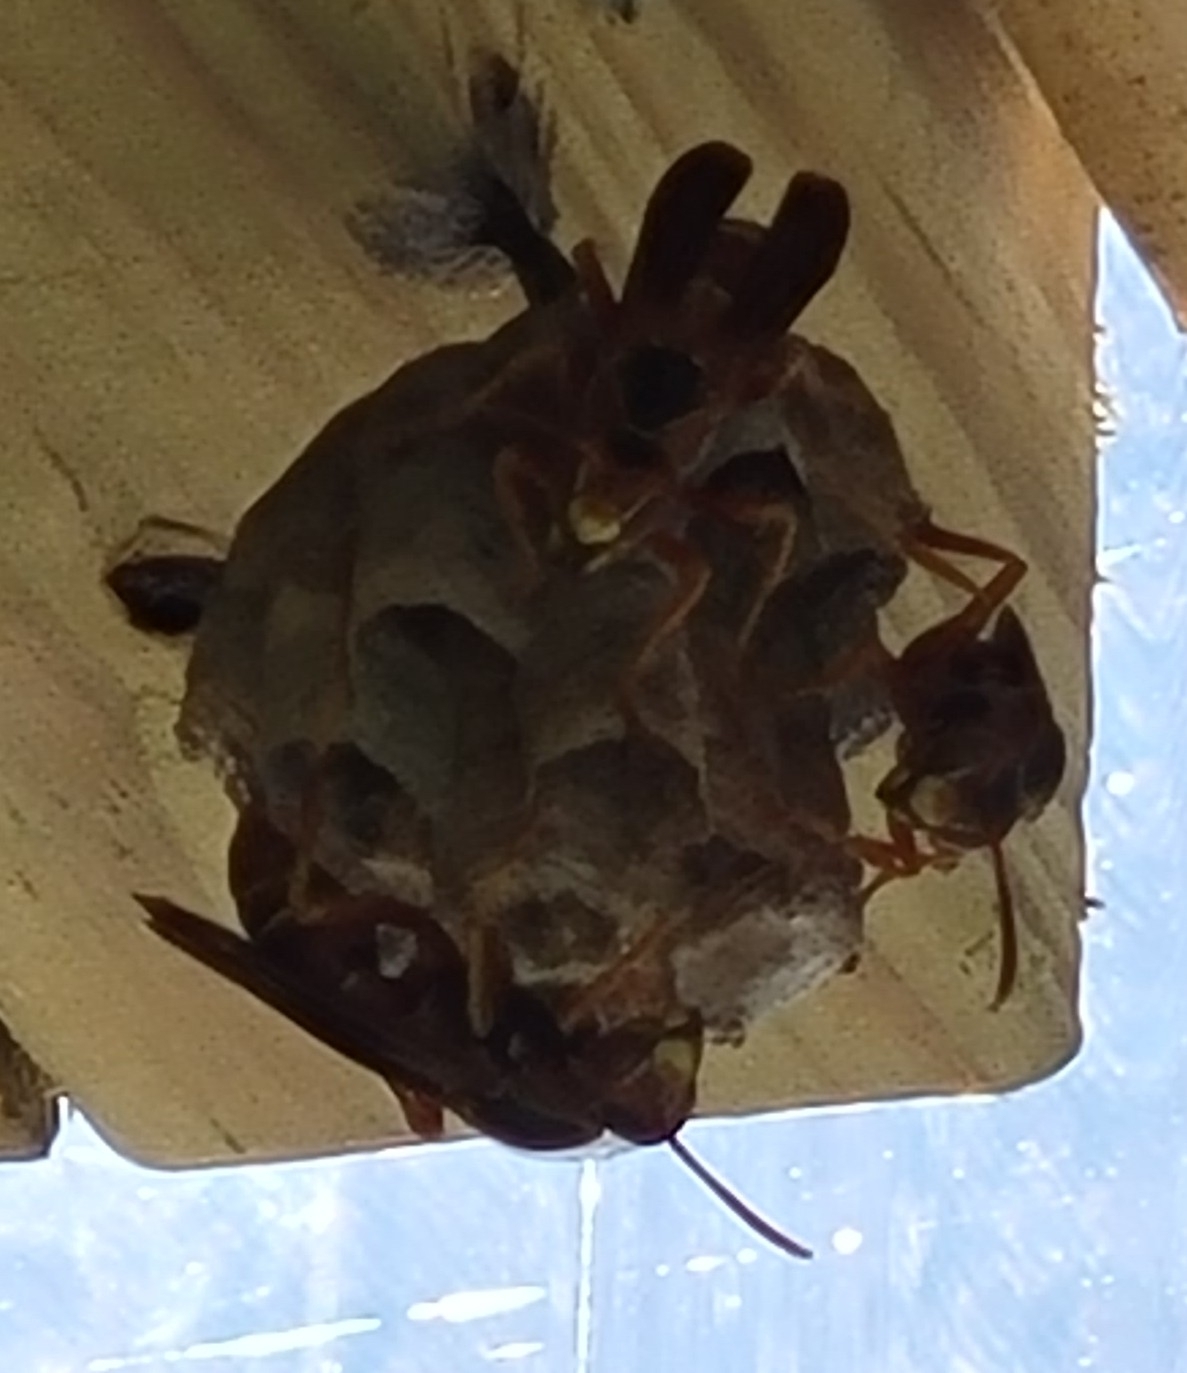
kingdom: Animalia
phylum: Arthropoda
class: Insecta
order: Hymenoptera
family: Vespidae
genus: Fuscopolistes
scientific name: Fuscopolistes
